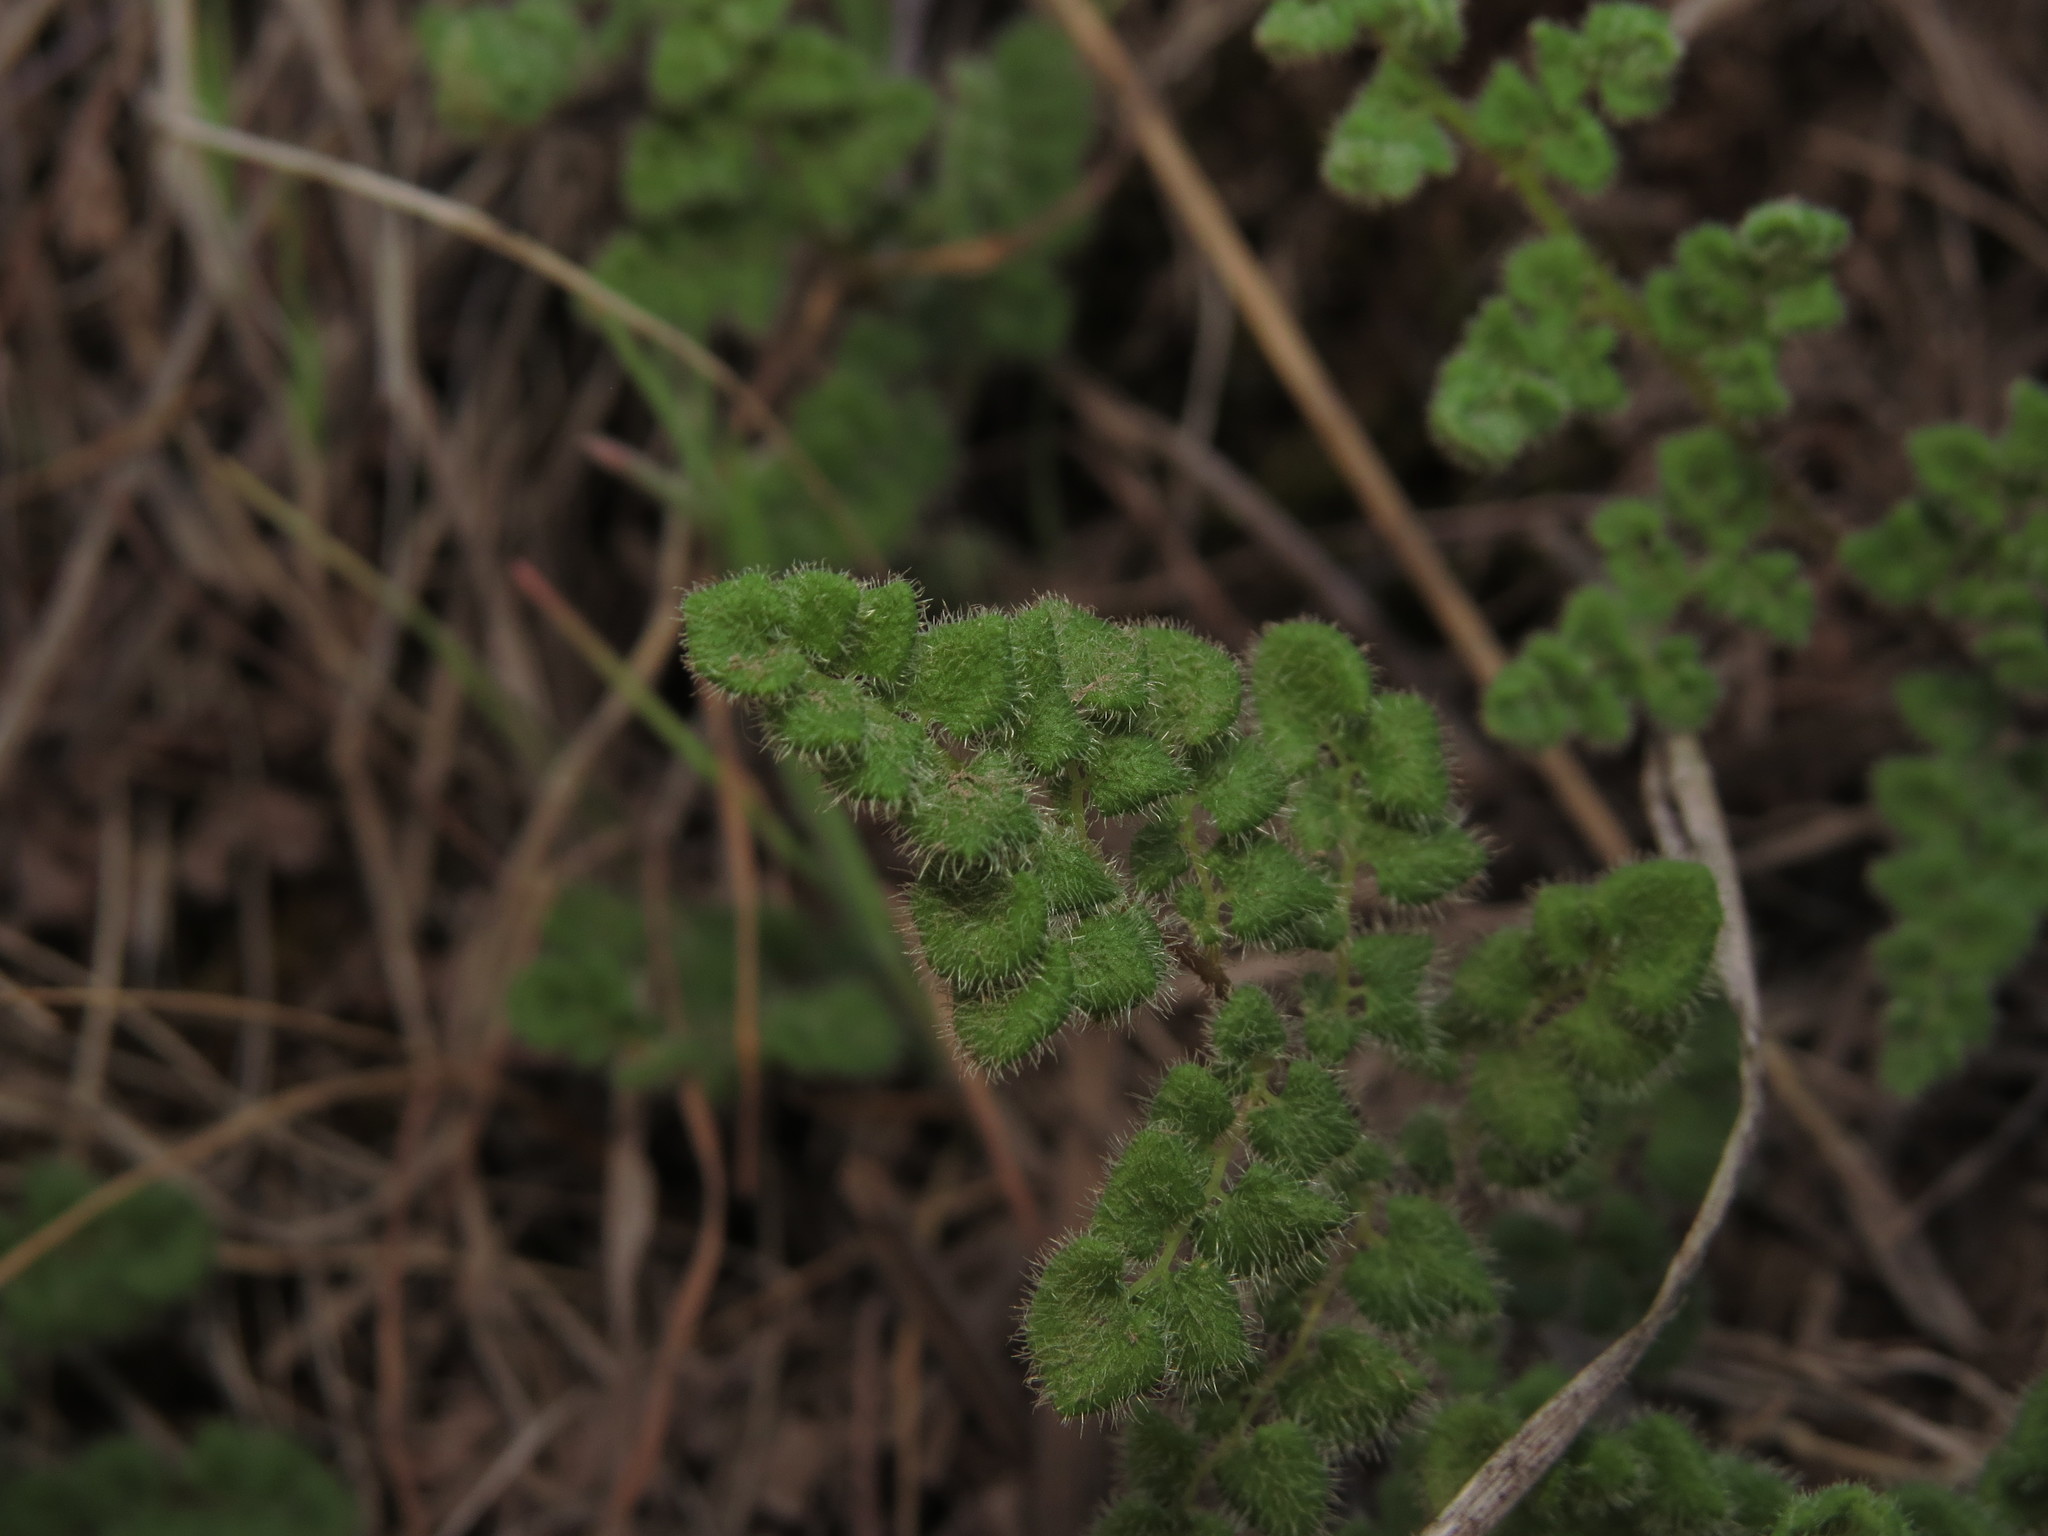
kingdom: Plantae
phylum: Tracheophyta
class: Polypodiopsida
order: Polypodiales
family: Pteridaceae
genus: Adiantum
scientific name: Adiantum chilense
